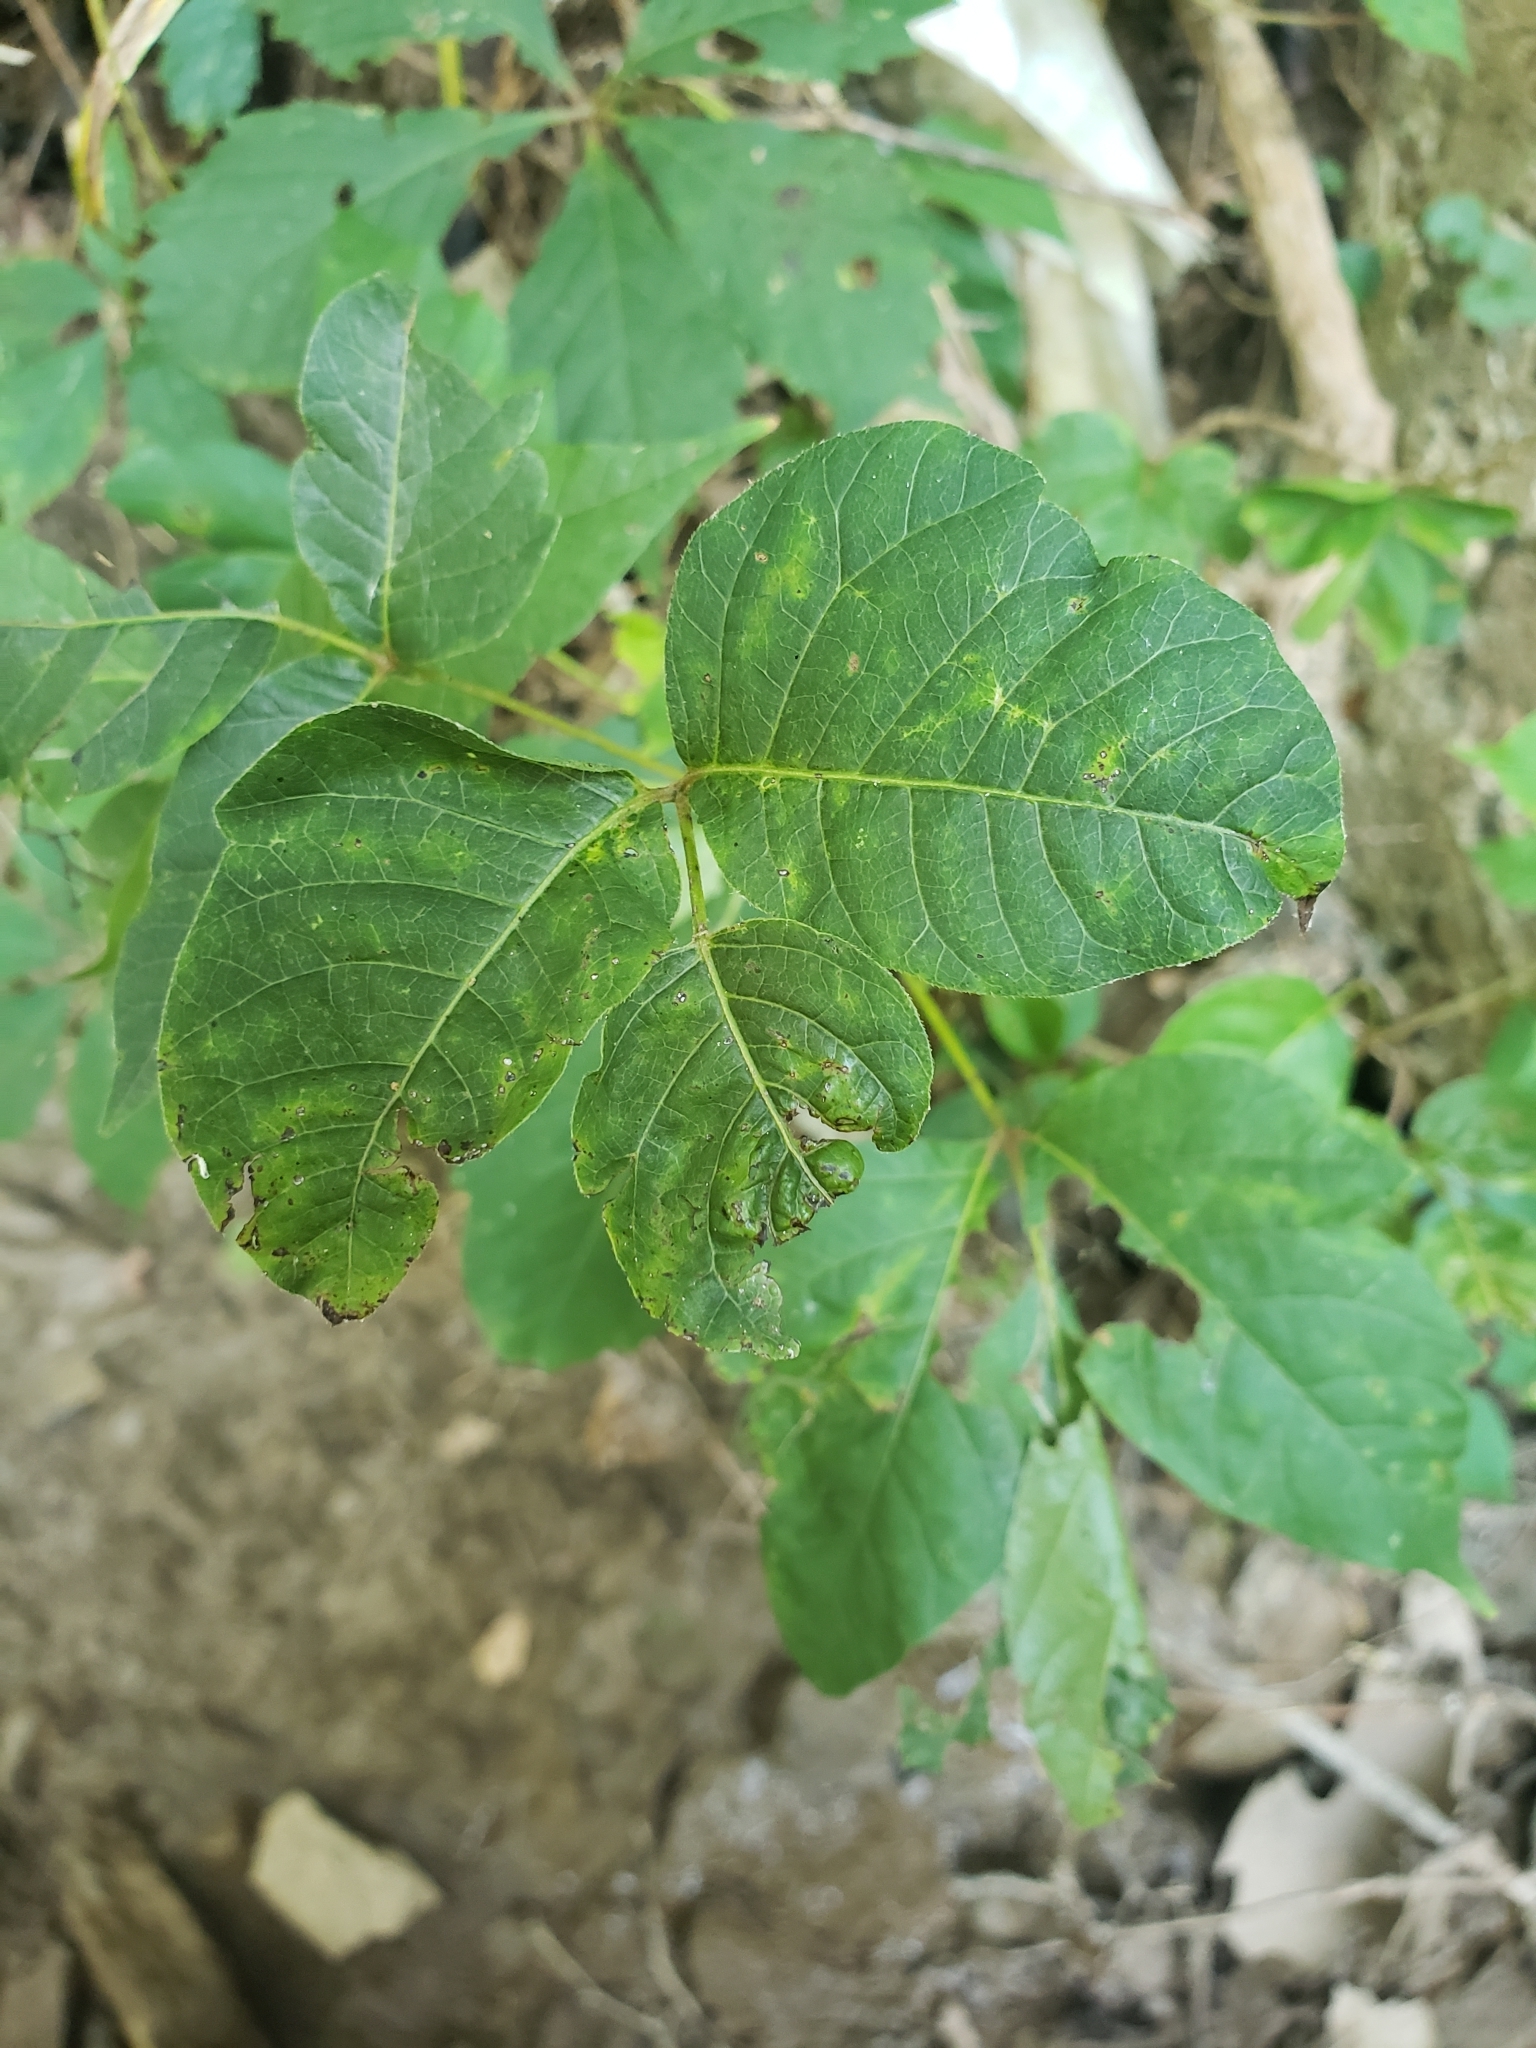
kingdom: Plantae
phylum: Tracheophyta
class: Magnoliopsida
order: Sapindales
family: Anacardiaceae
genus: Toxicodendron
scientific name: Toxicodendron radicans
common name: Poison ivy
